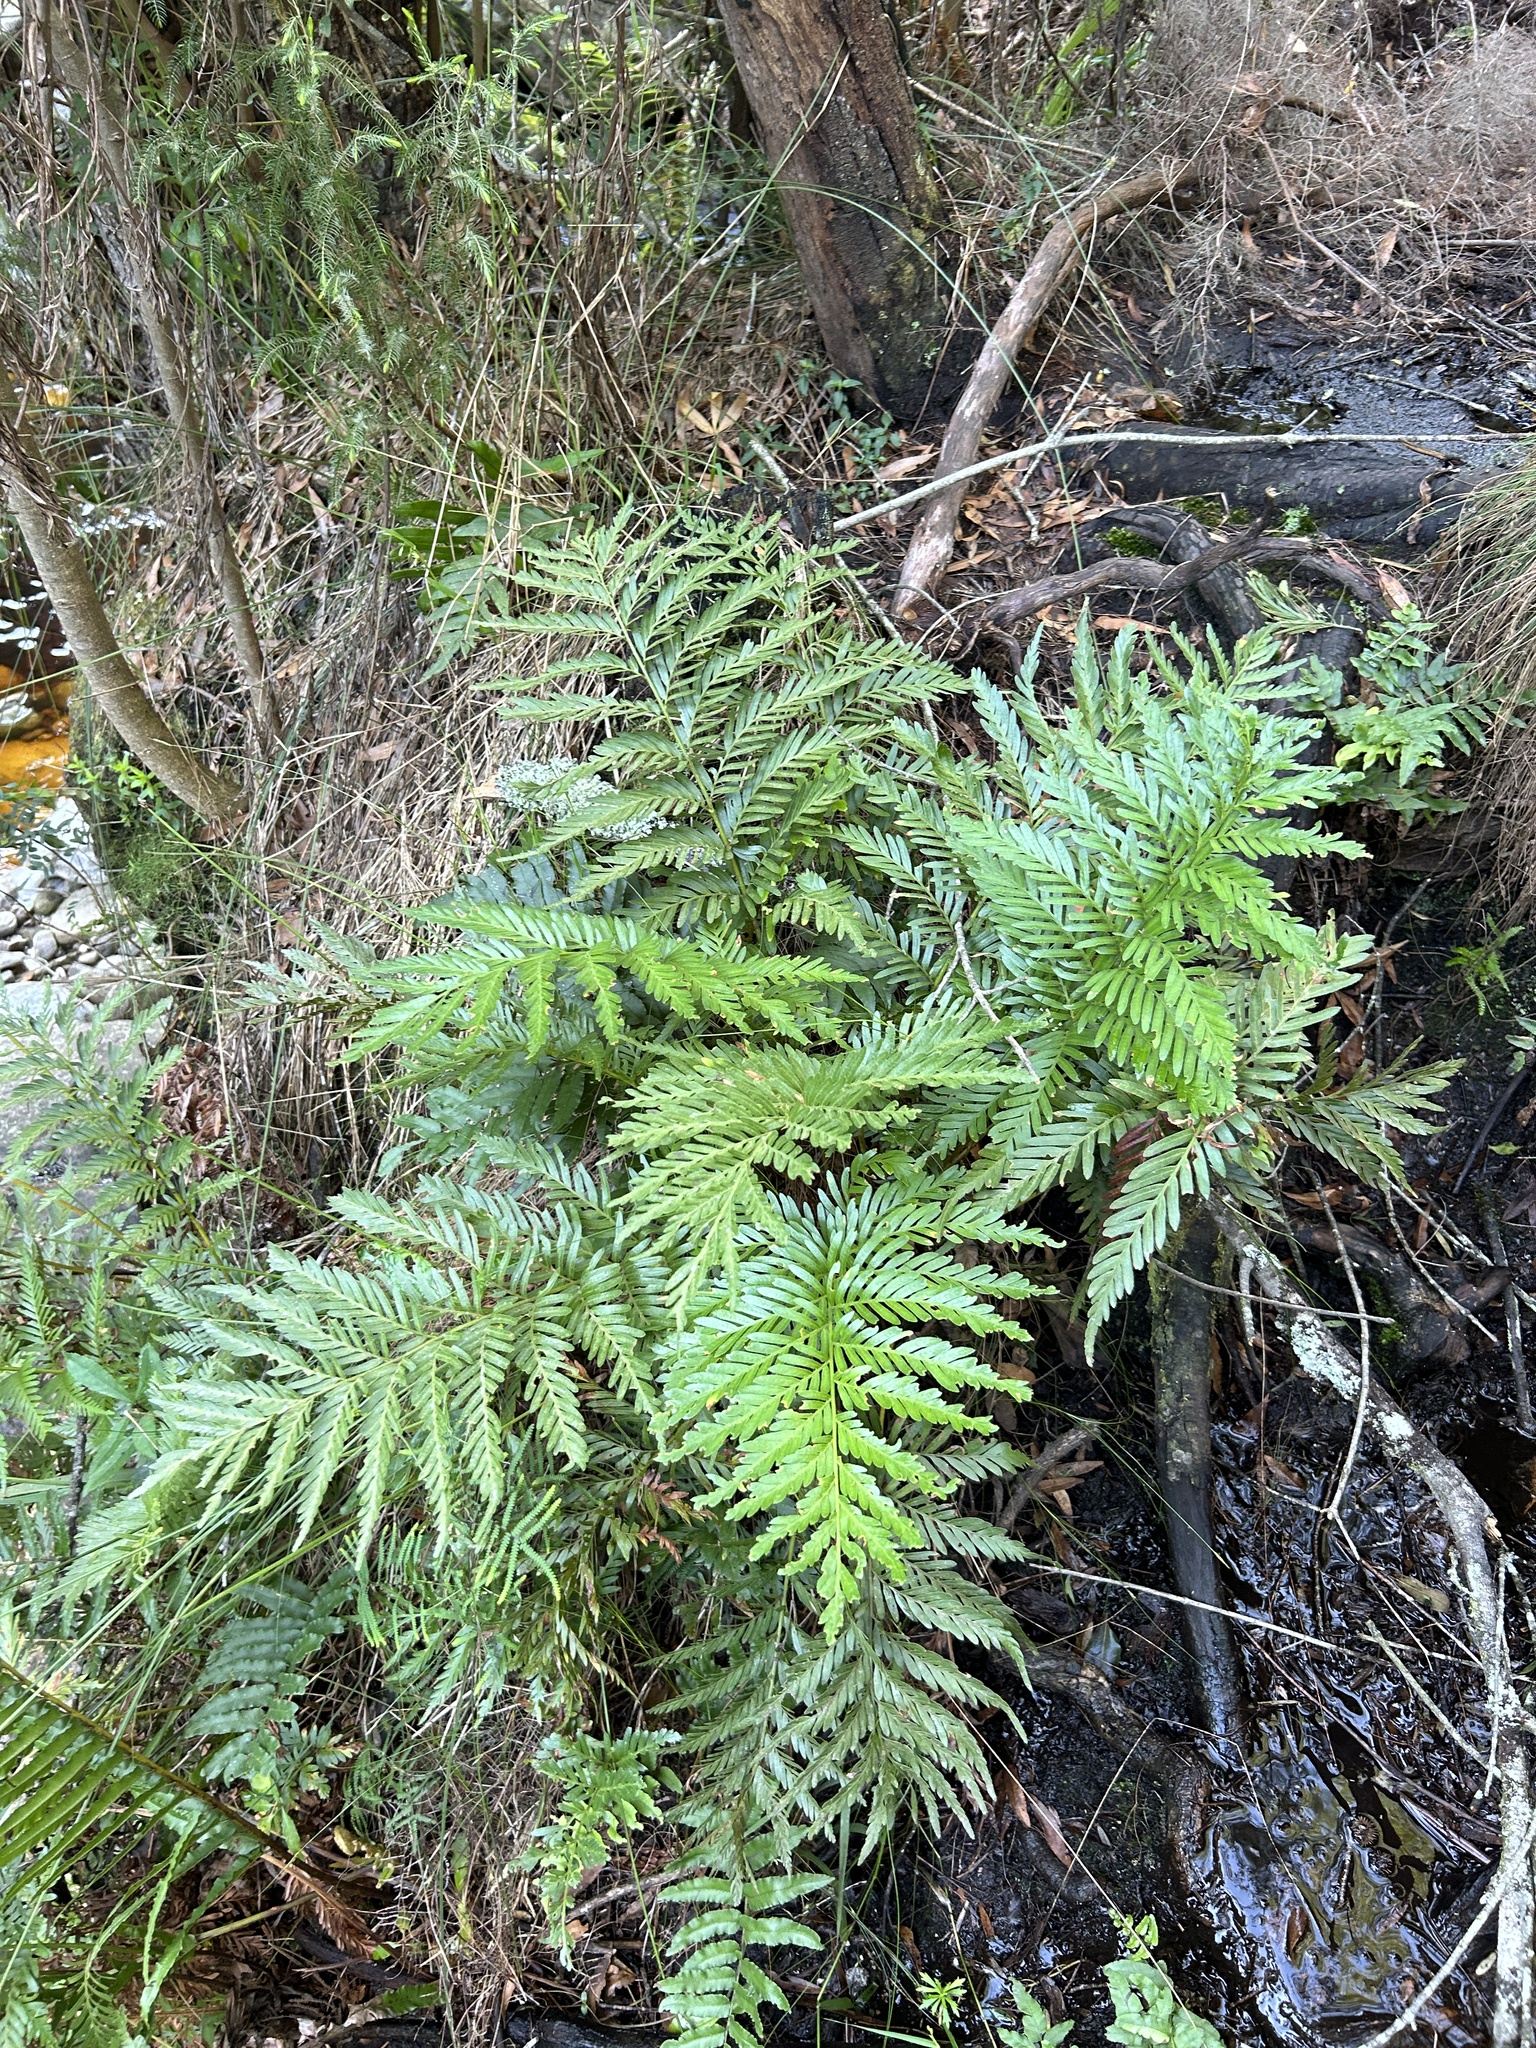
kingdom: Plantae
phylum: Tracheophyta
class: Polypodiopsida
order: Osmundales
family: Osmundaceae
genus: Todea
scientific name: Todea barbara
